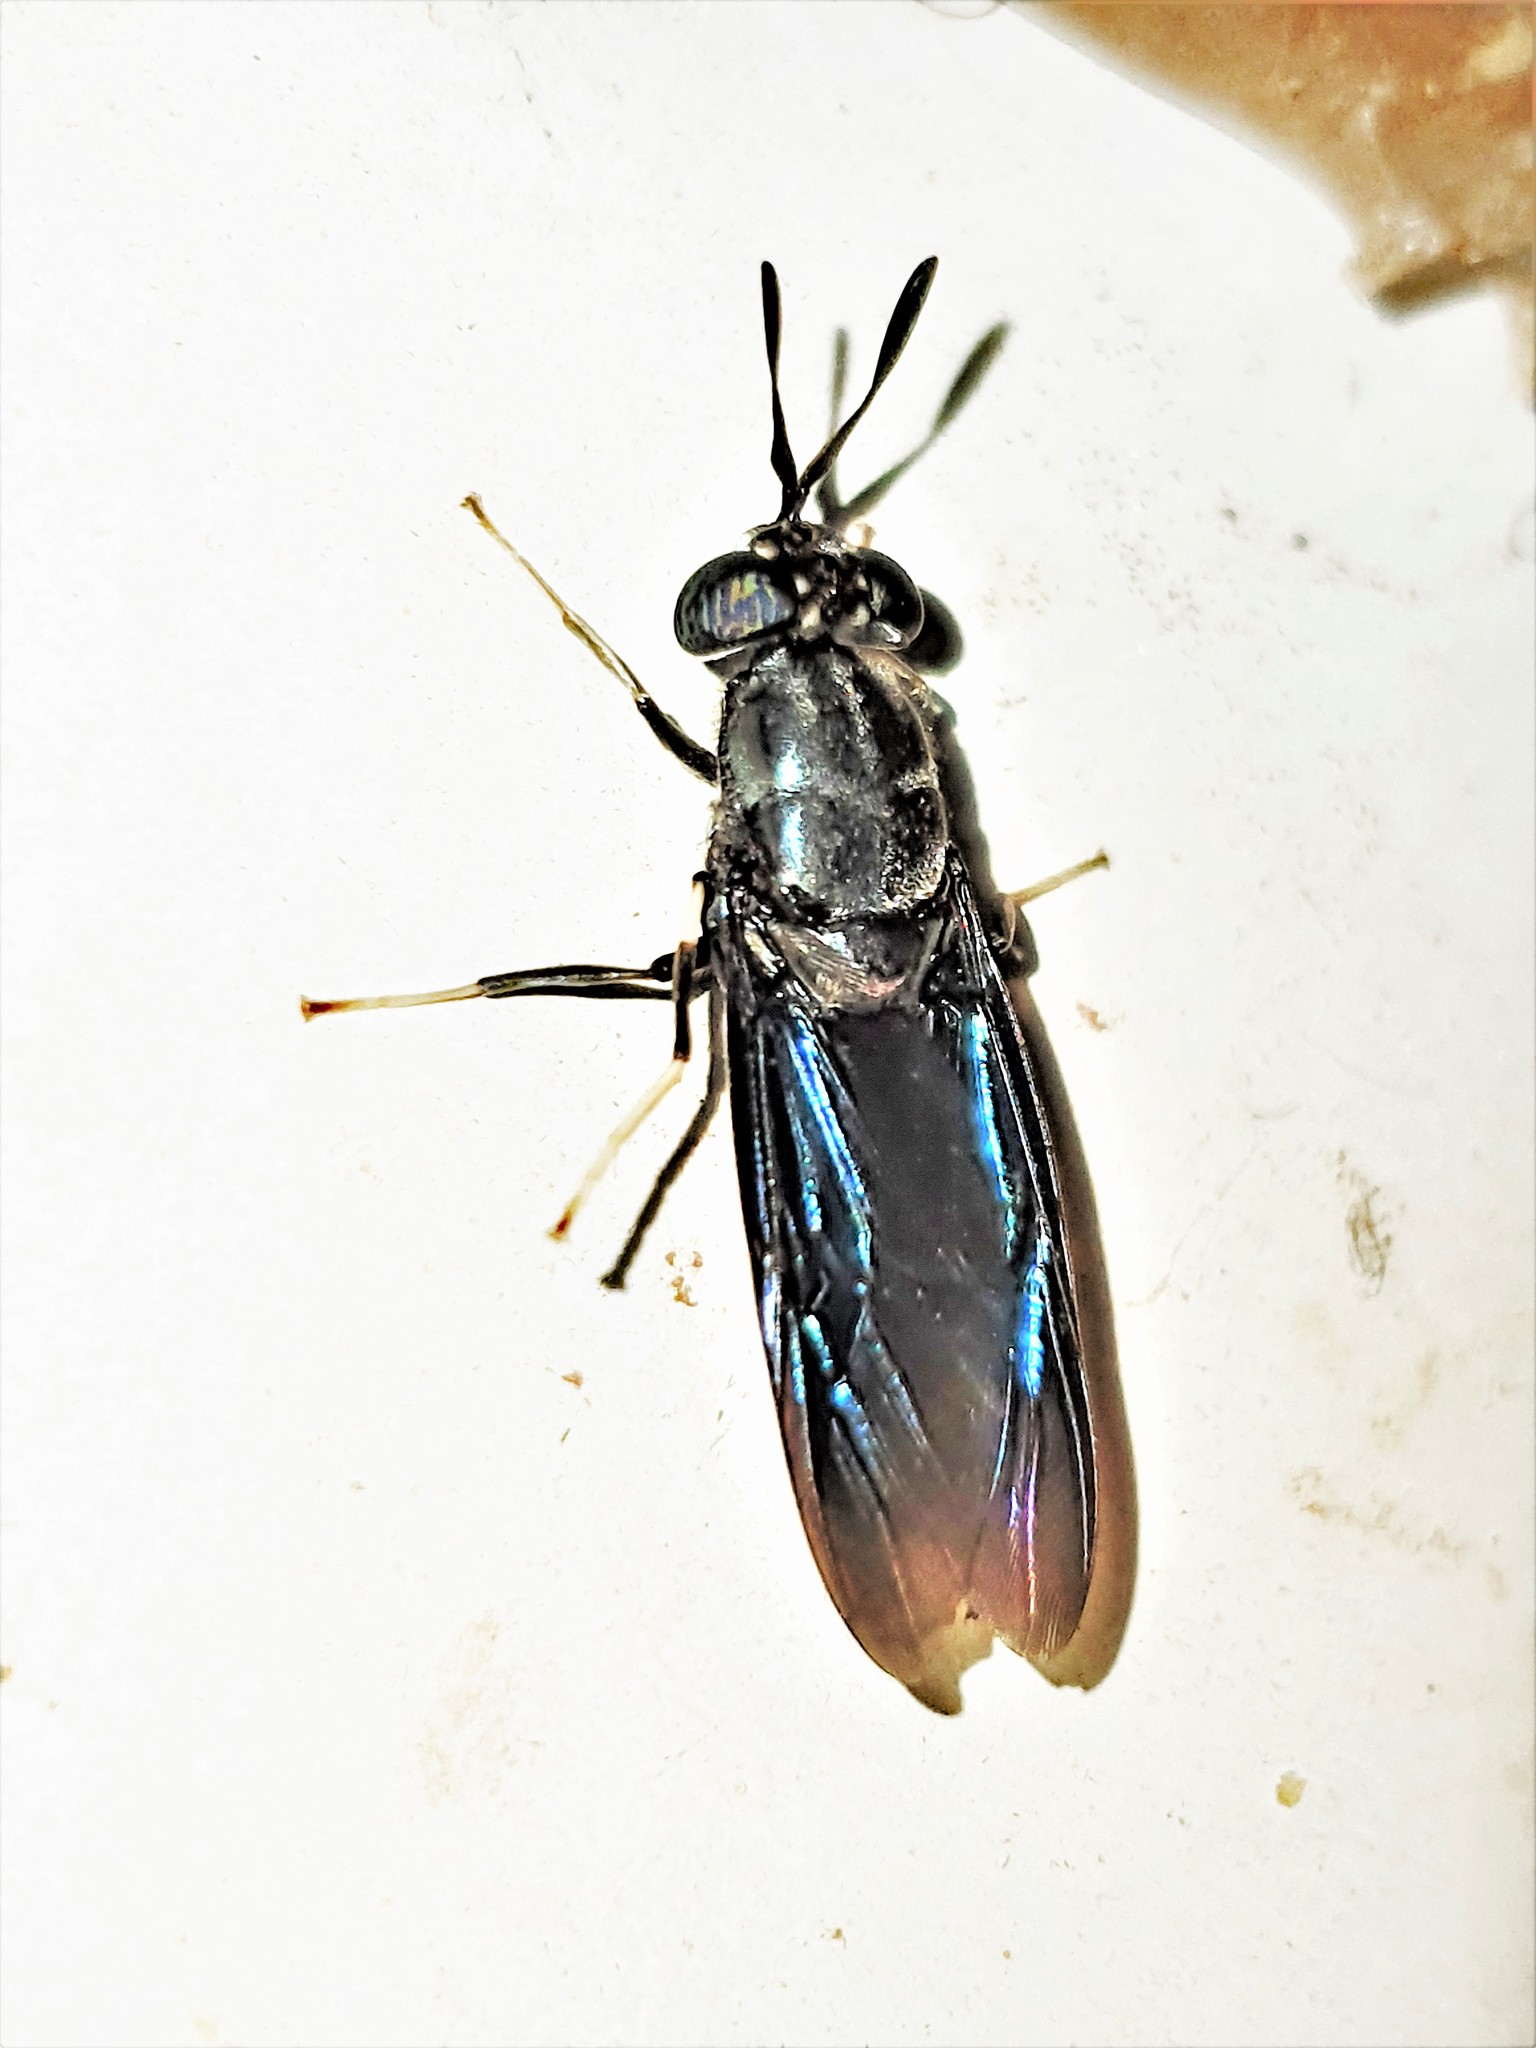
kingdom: Animalia
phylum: Arthropoda
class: Insecta
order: Diptera
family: Stratiomyidae
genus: Hermetia
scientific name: Hermetia illucens
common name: Black soldier fly
